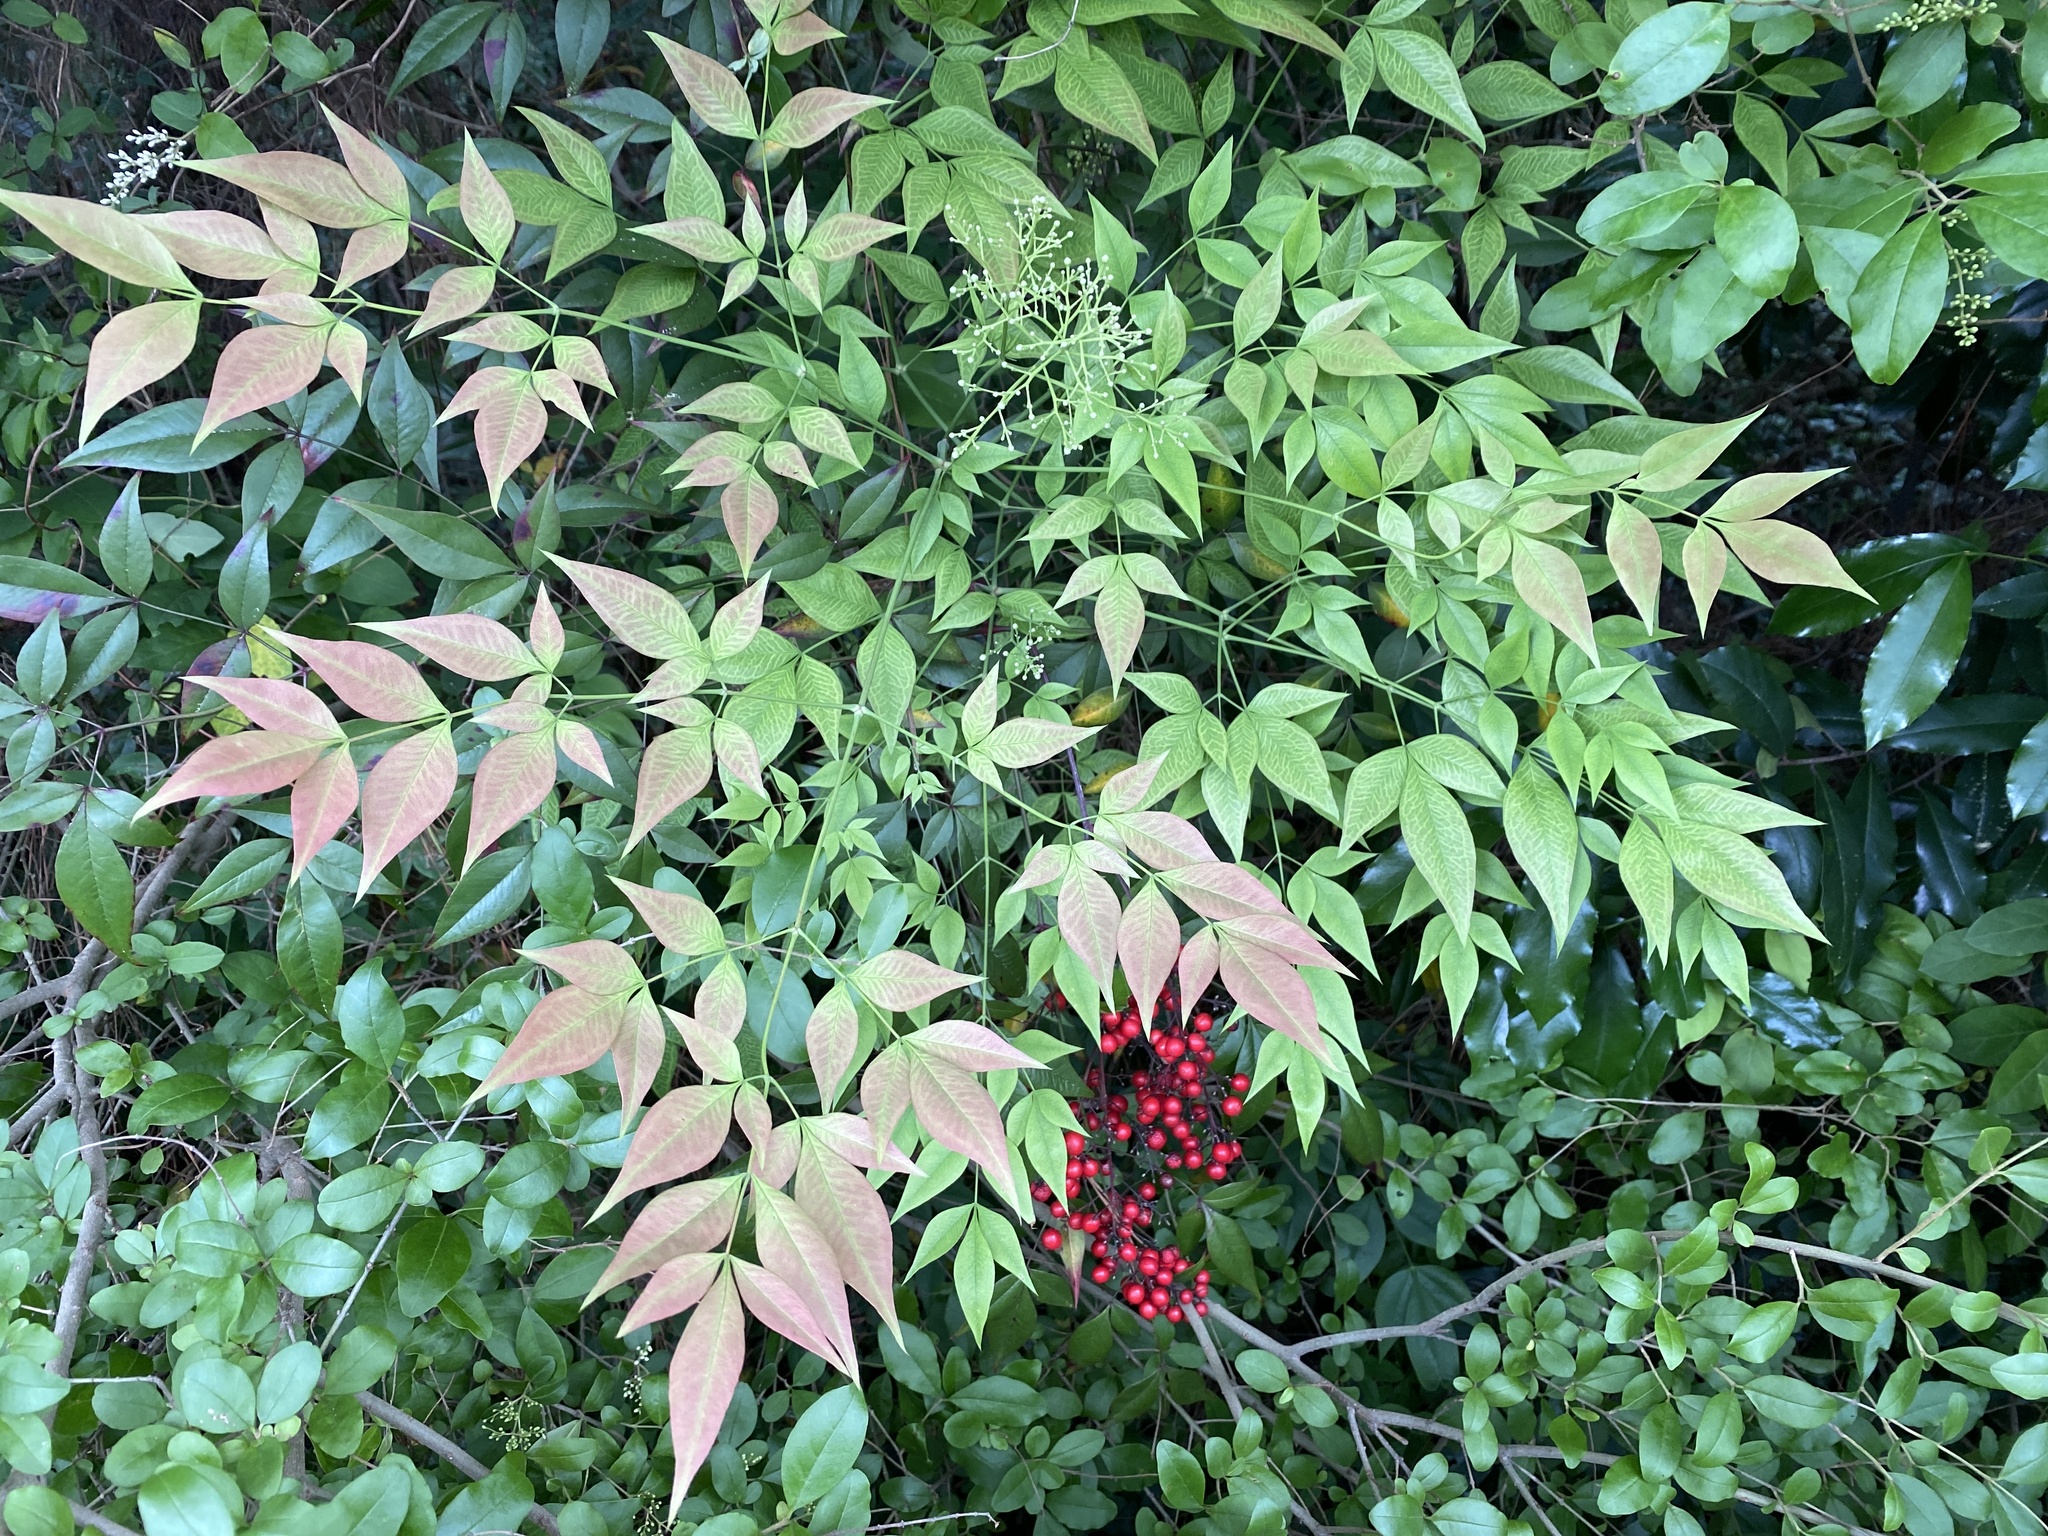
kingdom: Plantae
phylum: Tracheophyta
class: Magnoliopsida
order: Ranunculales
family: Berberidaceae
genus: Nandina
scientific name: Nandina domestica
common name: Sacred bamboo
